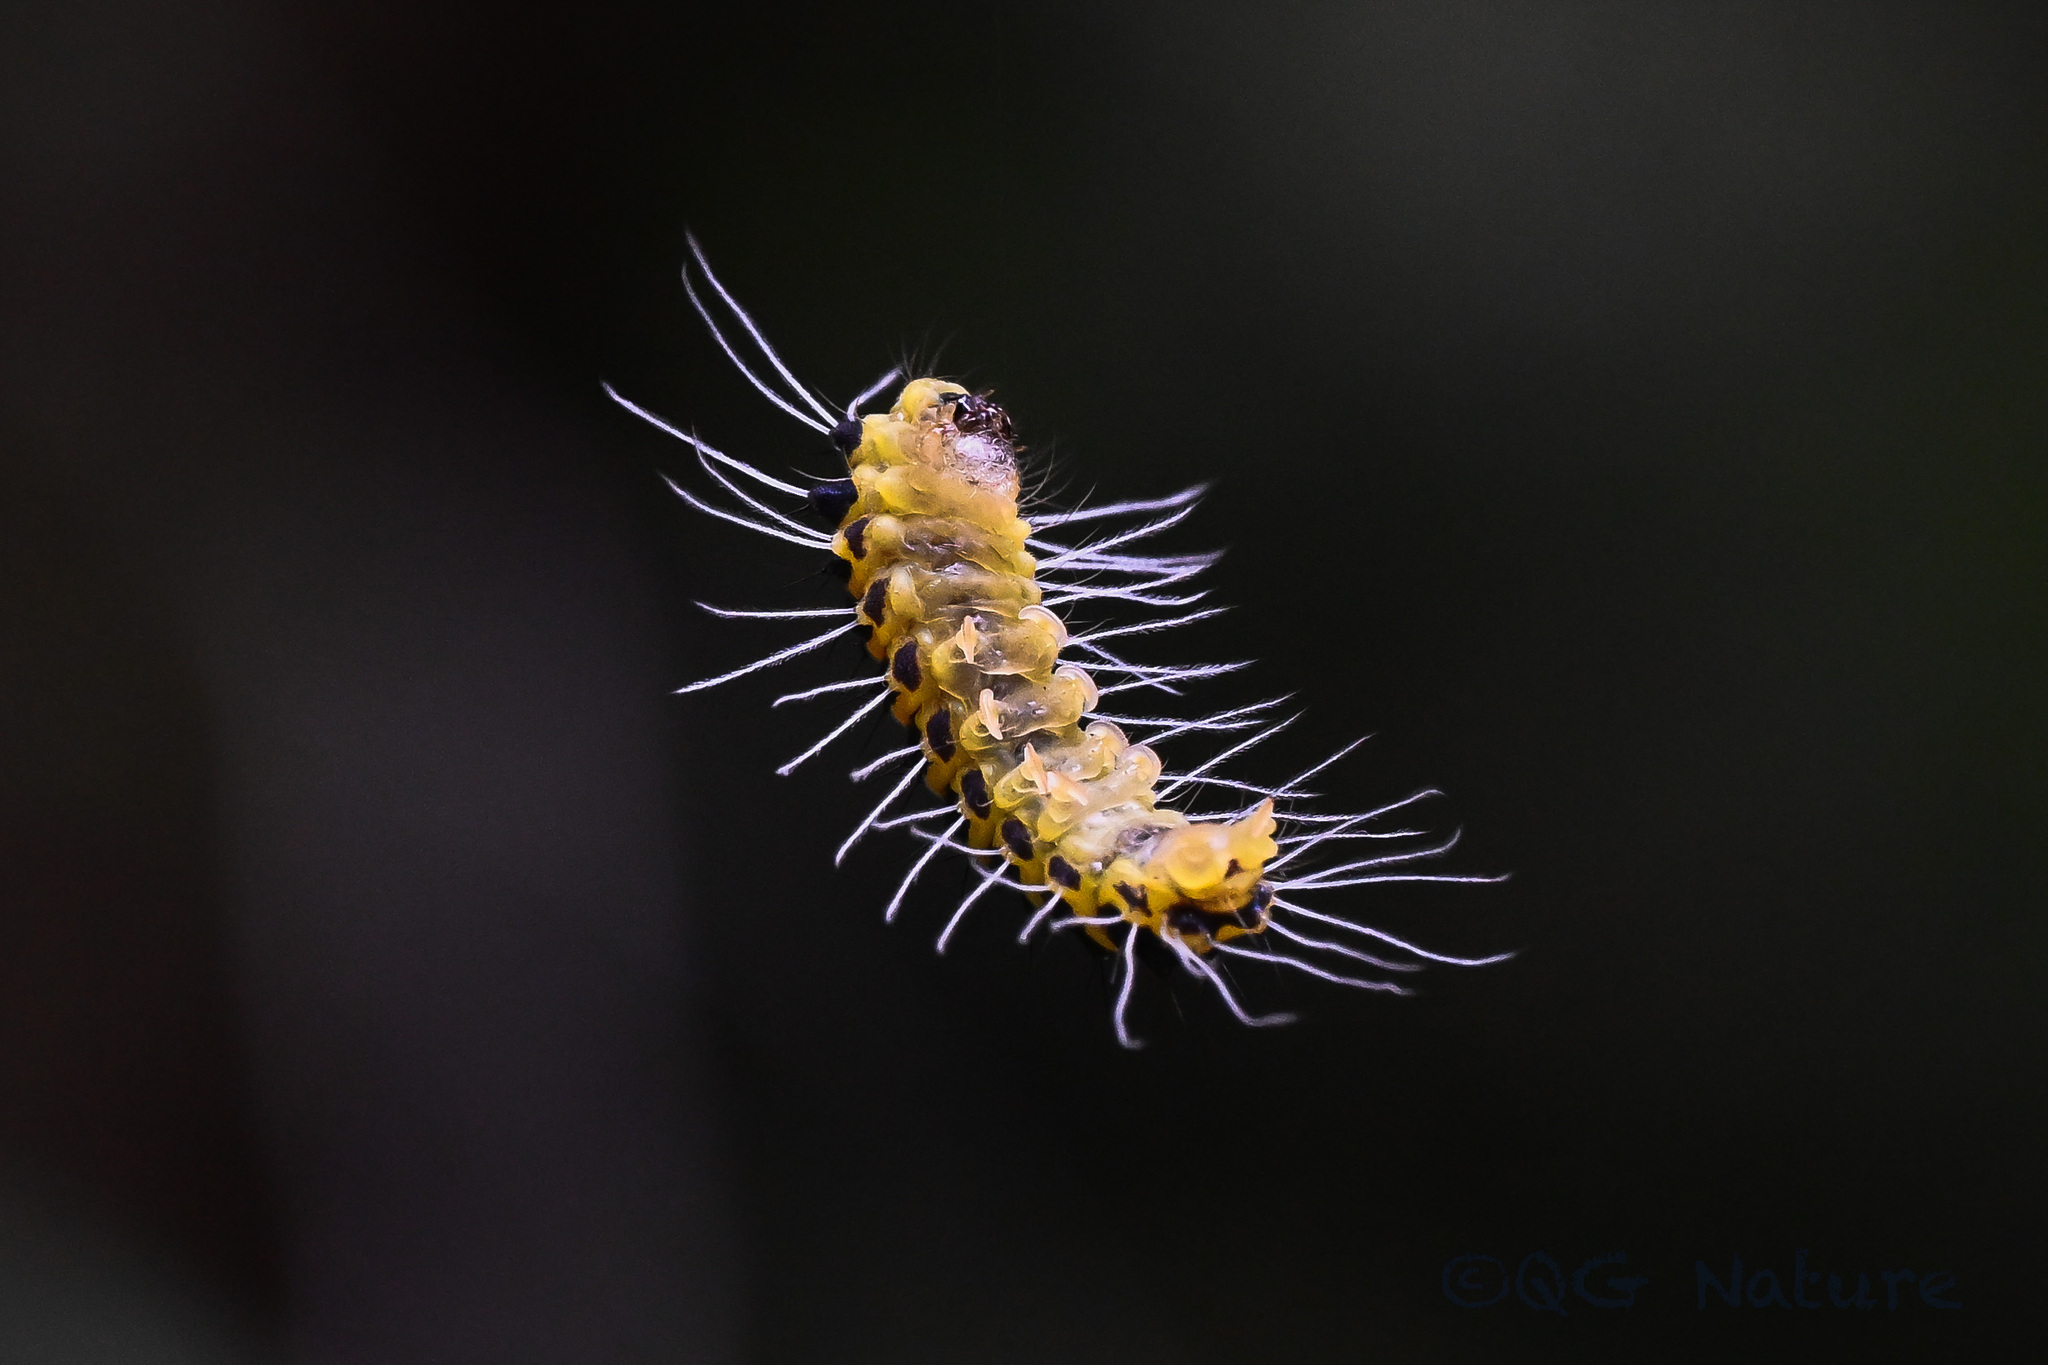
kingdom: Animalia
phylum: Arthropoda
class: Insecta
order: Lepidoptera
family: Zygaenidae
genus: Achelura
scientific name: Achelura
